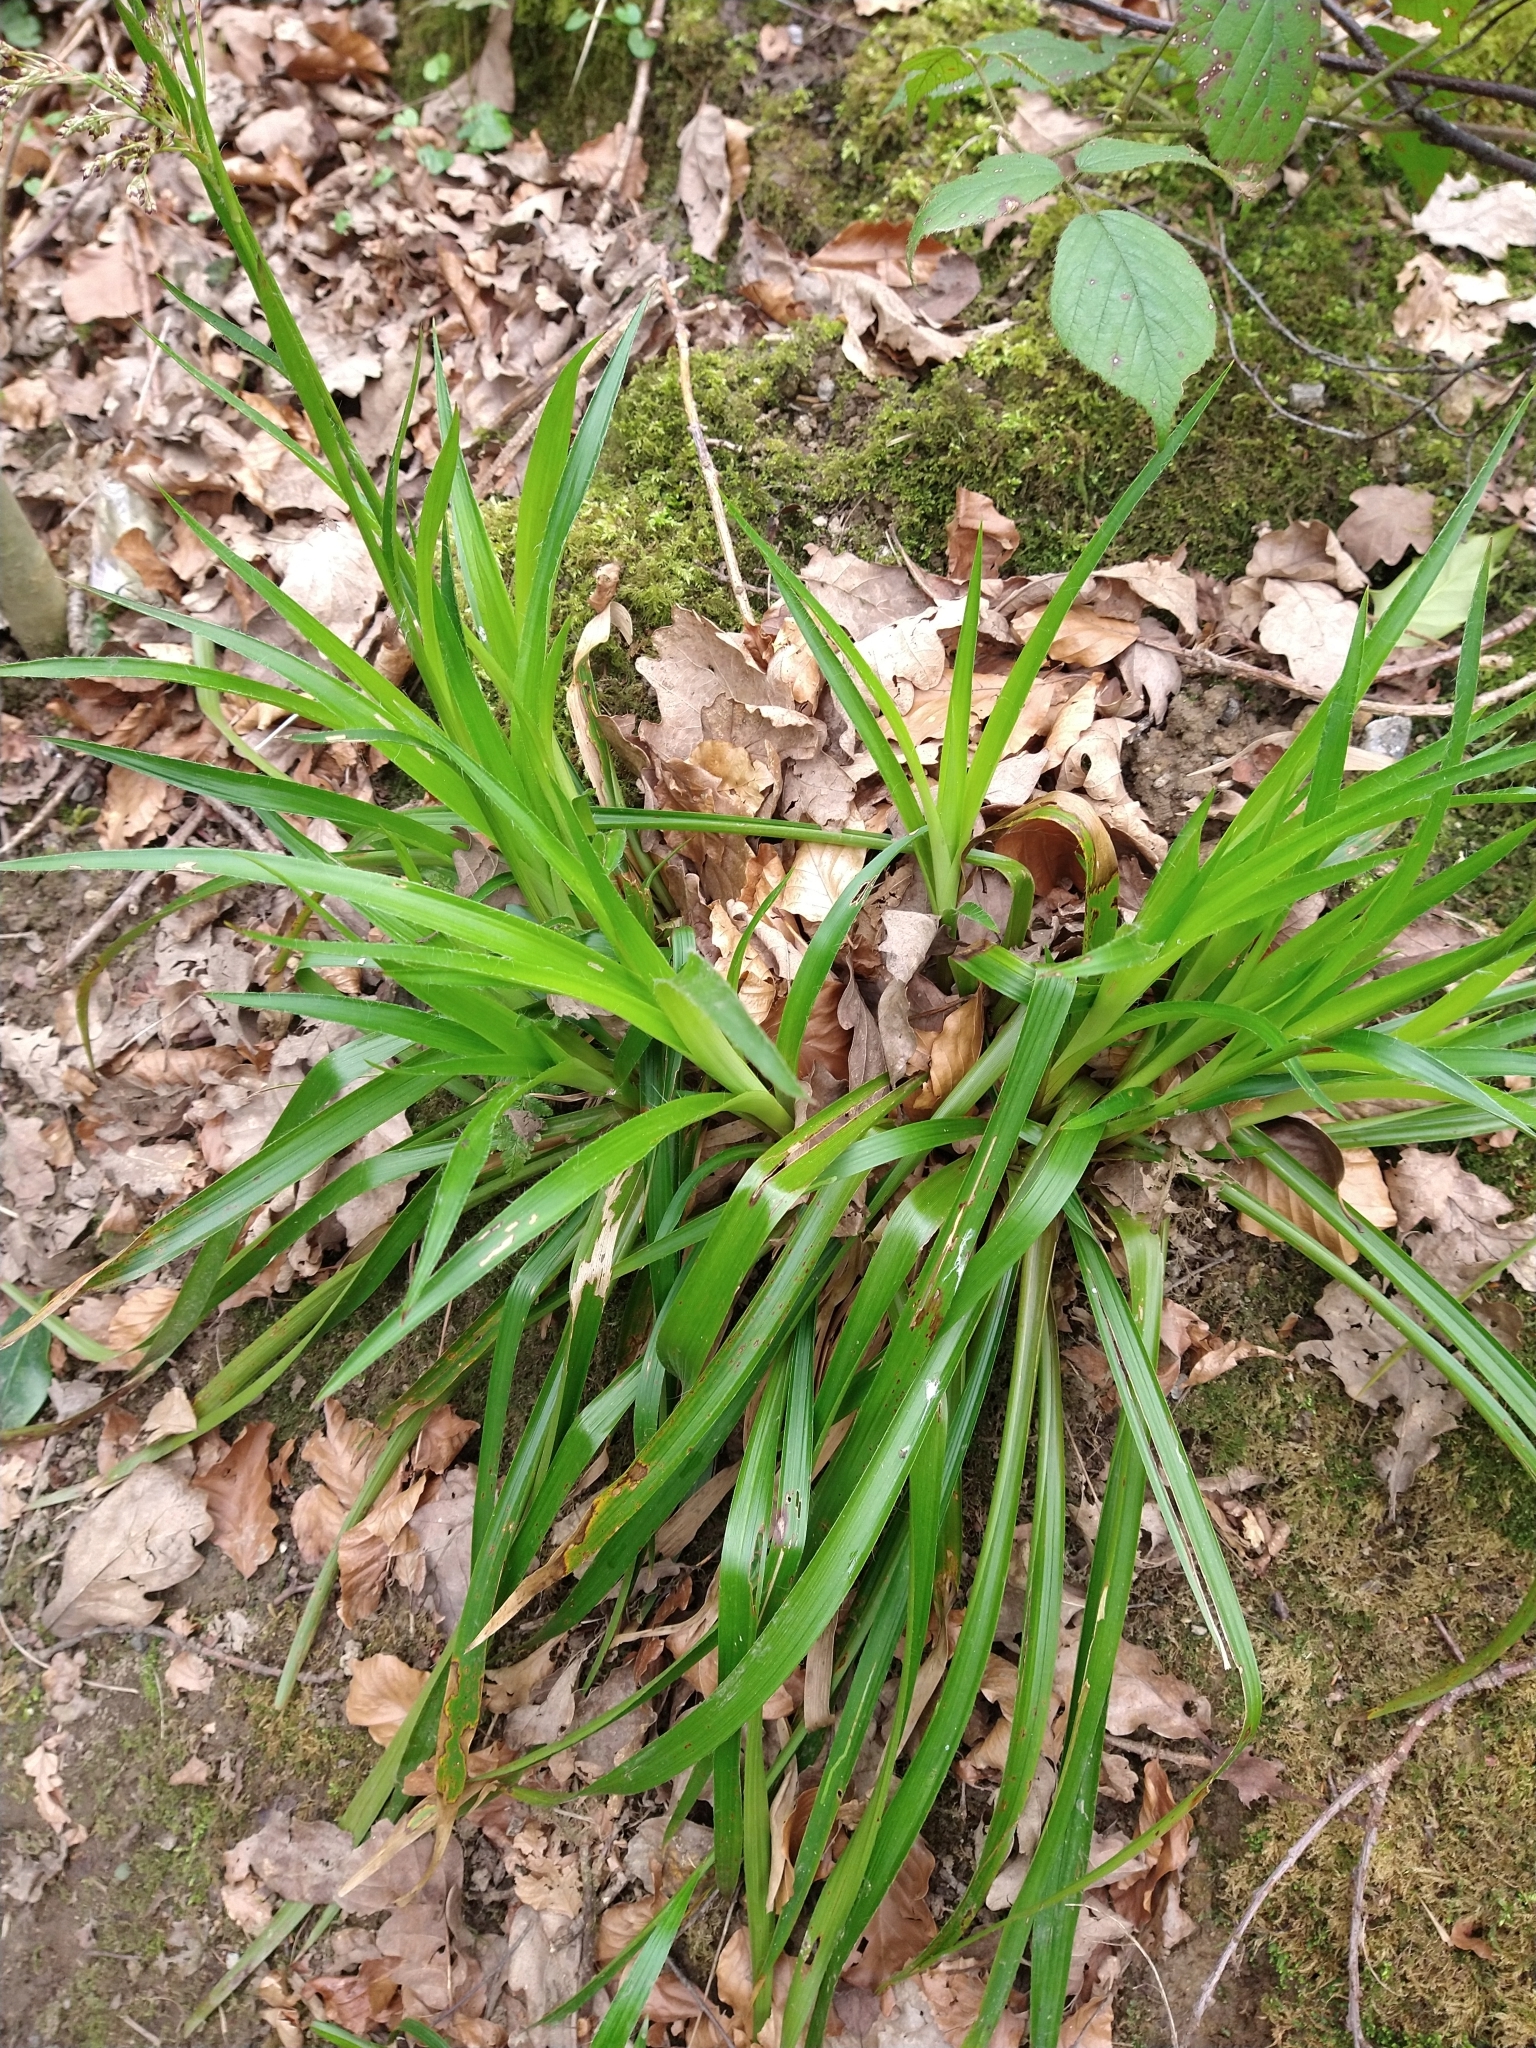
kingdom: Plantae
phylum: Tracheophyta
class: Liliopsida
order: Poales
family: Juncaceae
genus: Luzula
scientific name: Luzula sylvatica
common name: Great wood-rush
